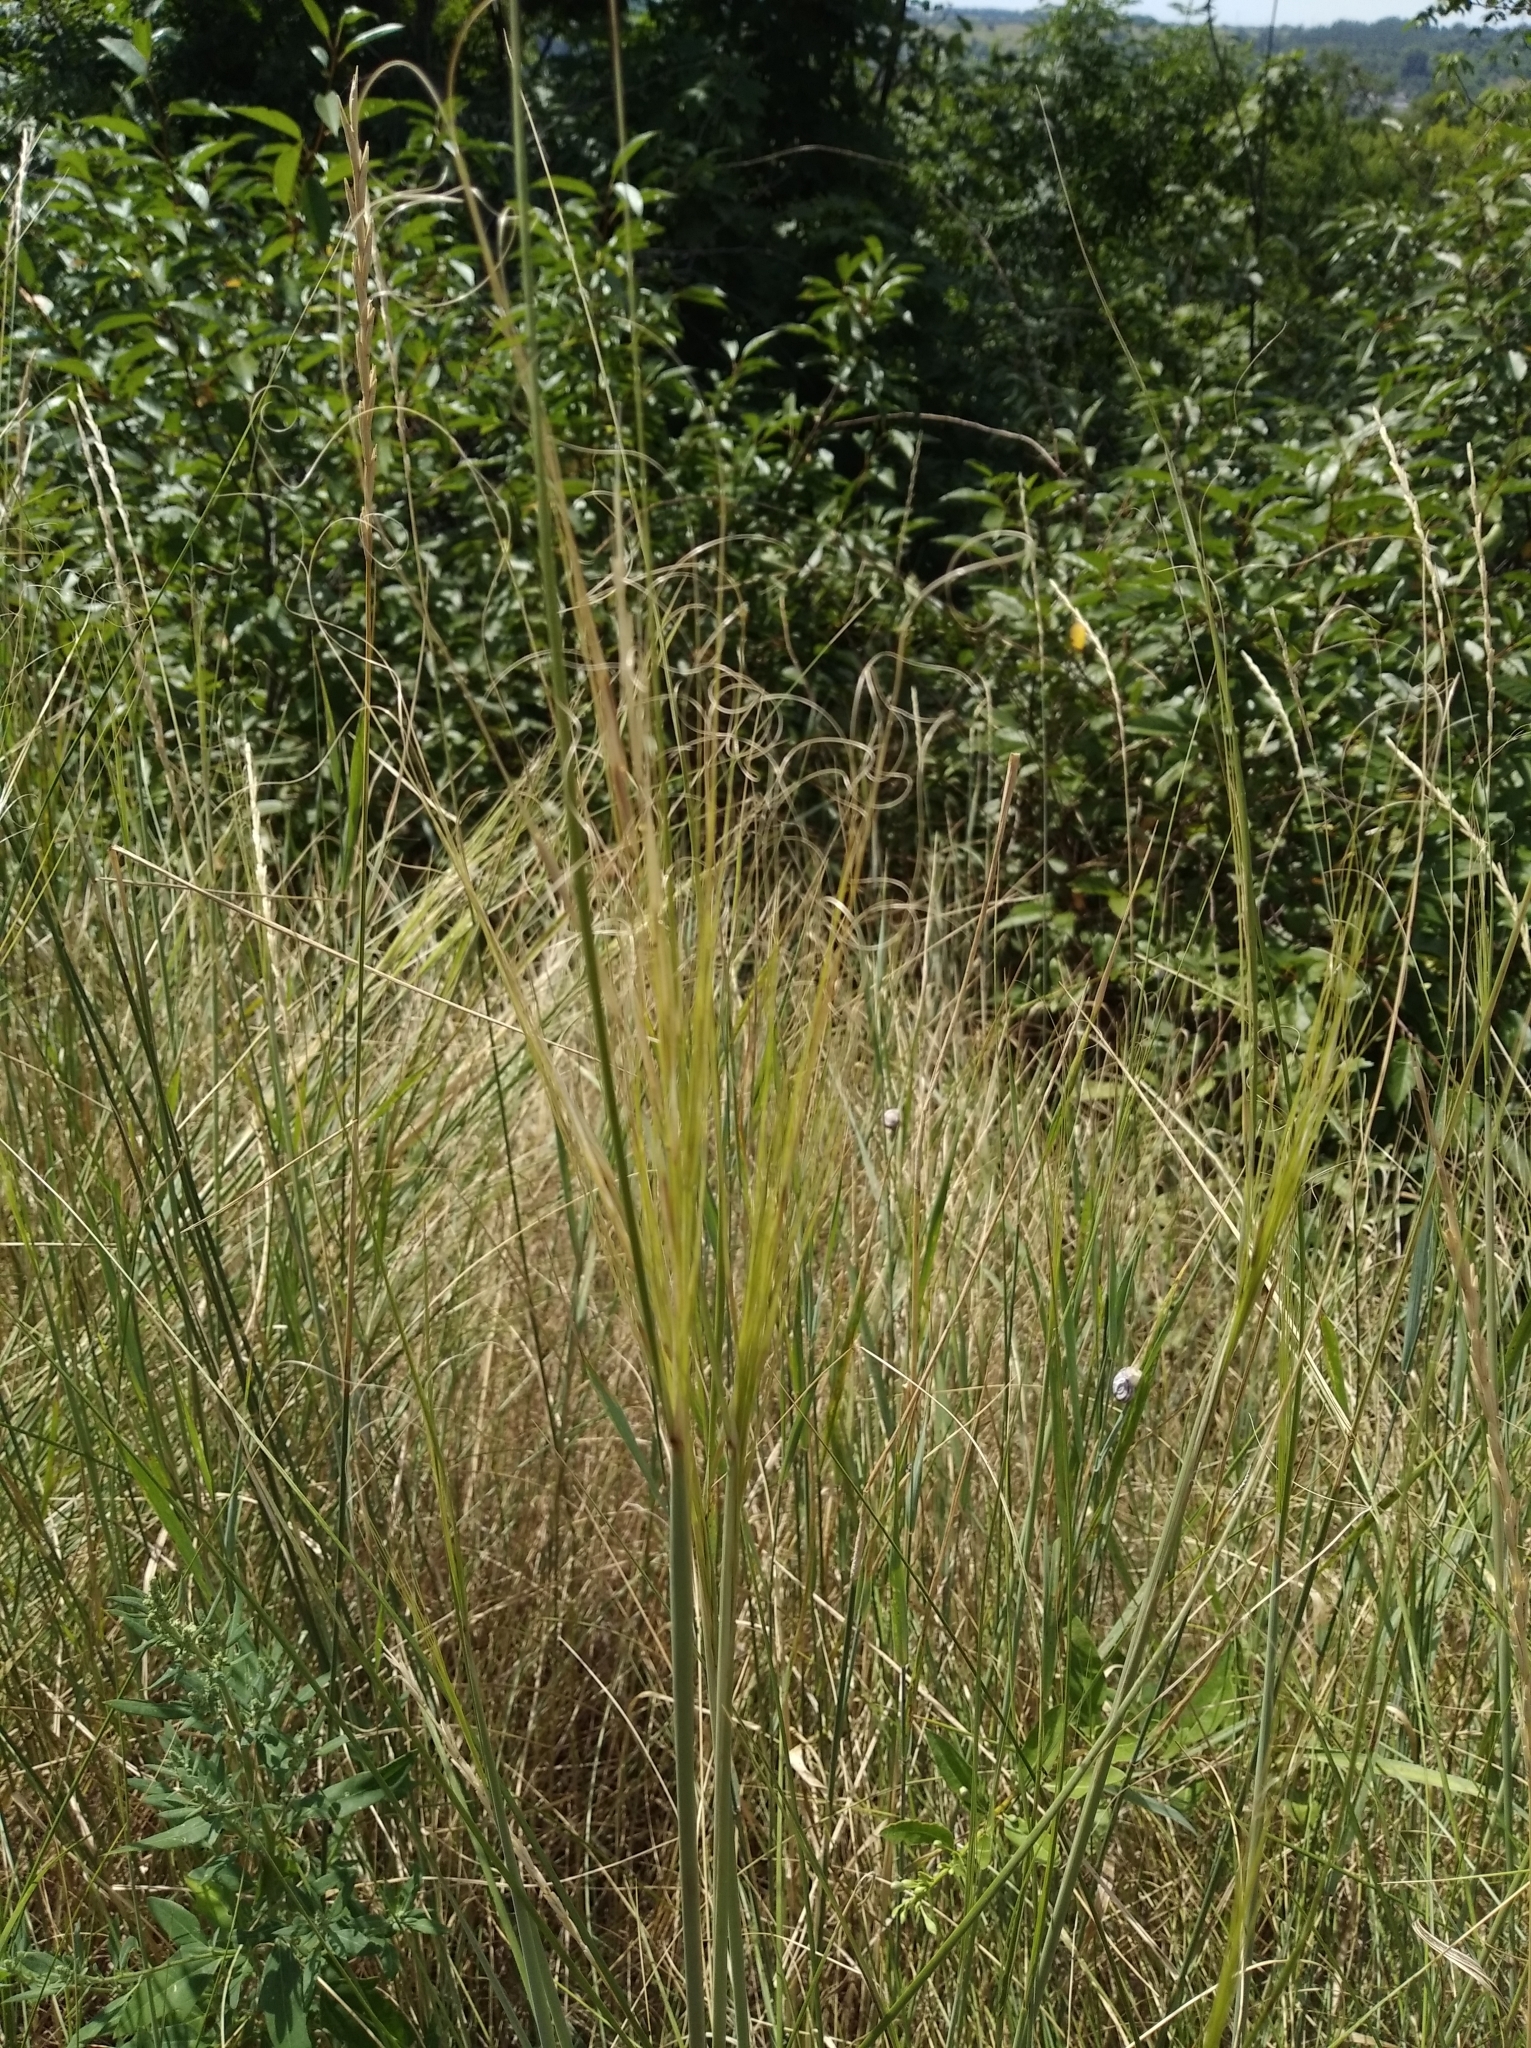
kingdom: Plantae
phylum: Tracheophyta
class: Liliopsida
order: Poales
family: Poaceae
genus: Stipa
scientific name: Stipa capillata
